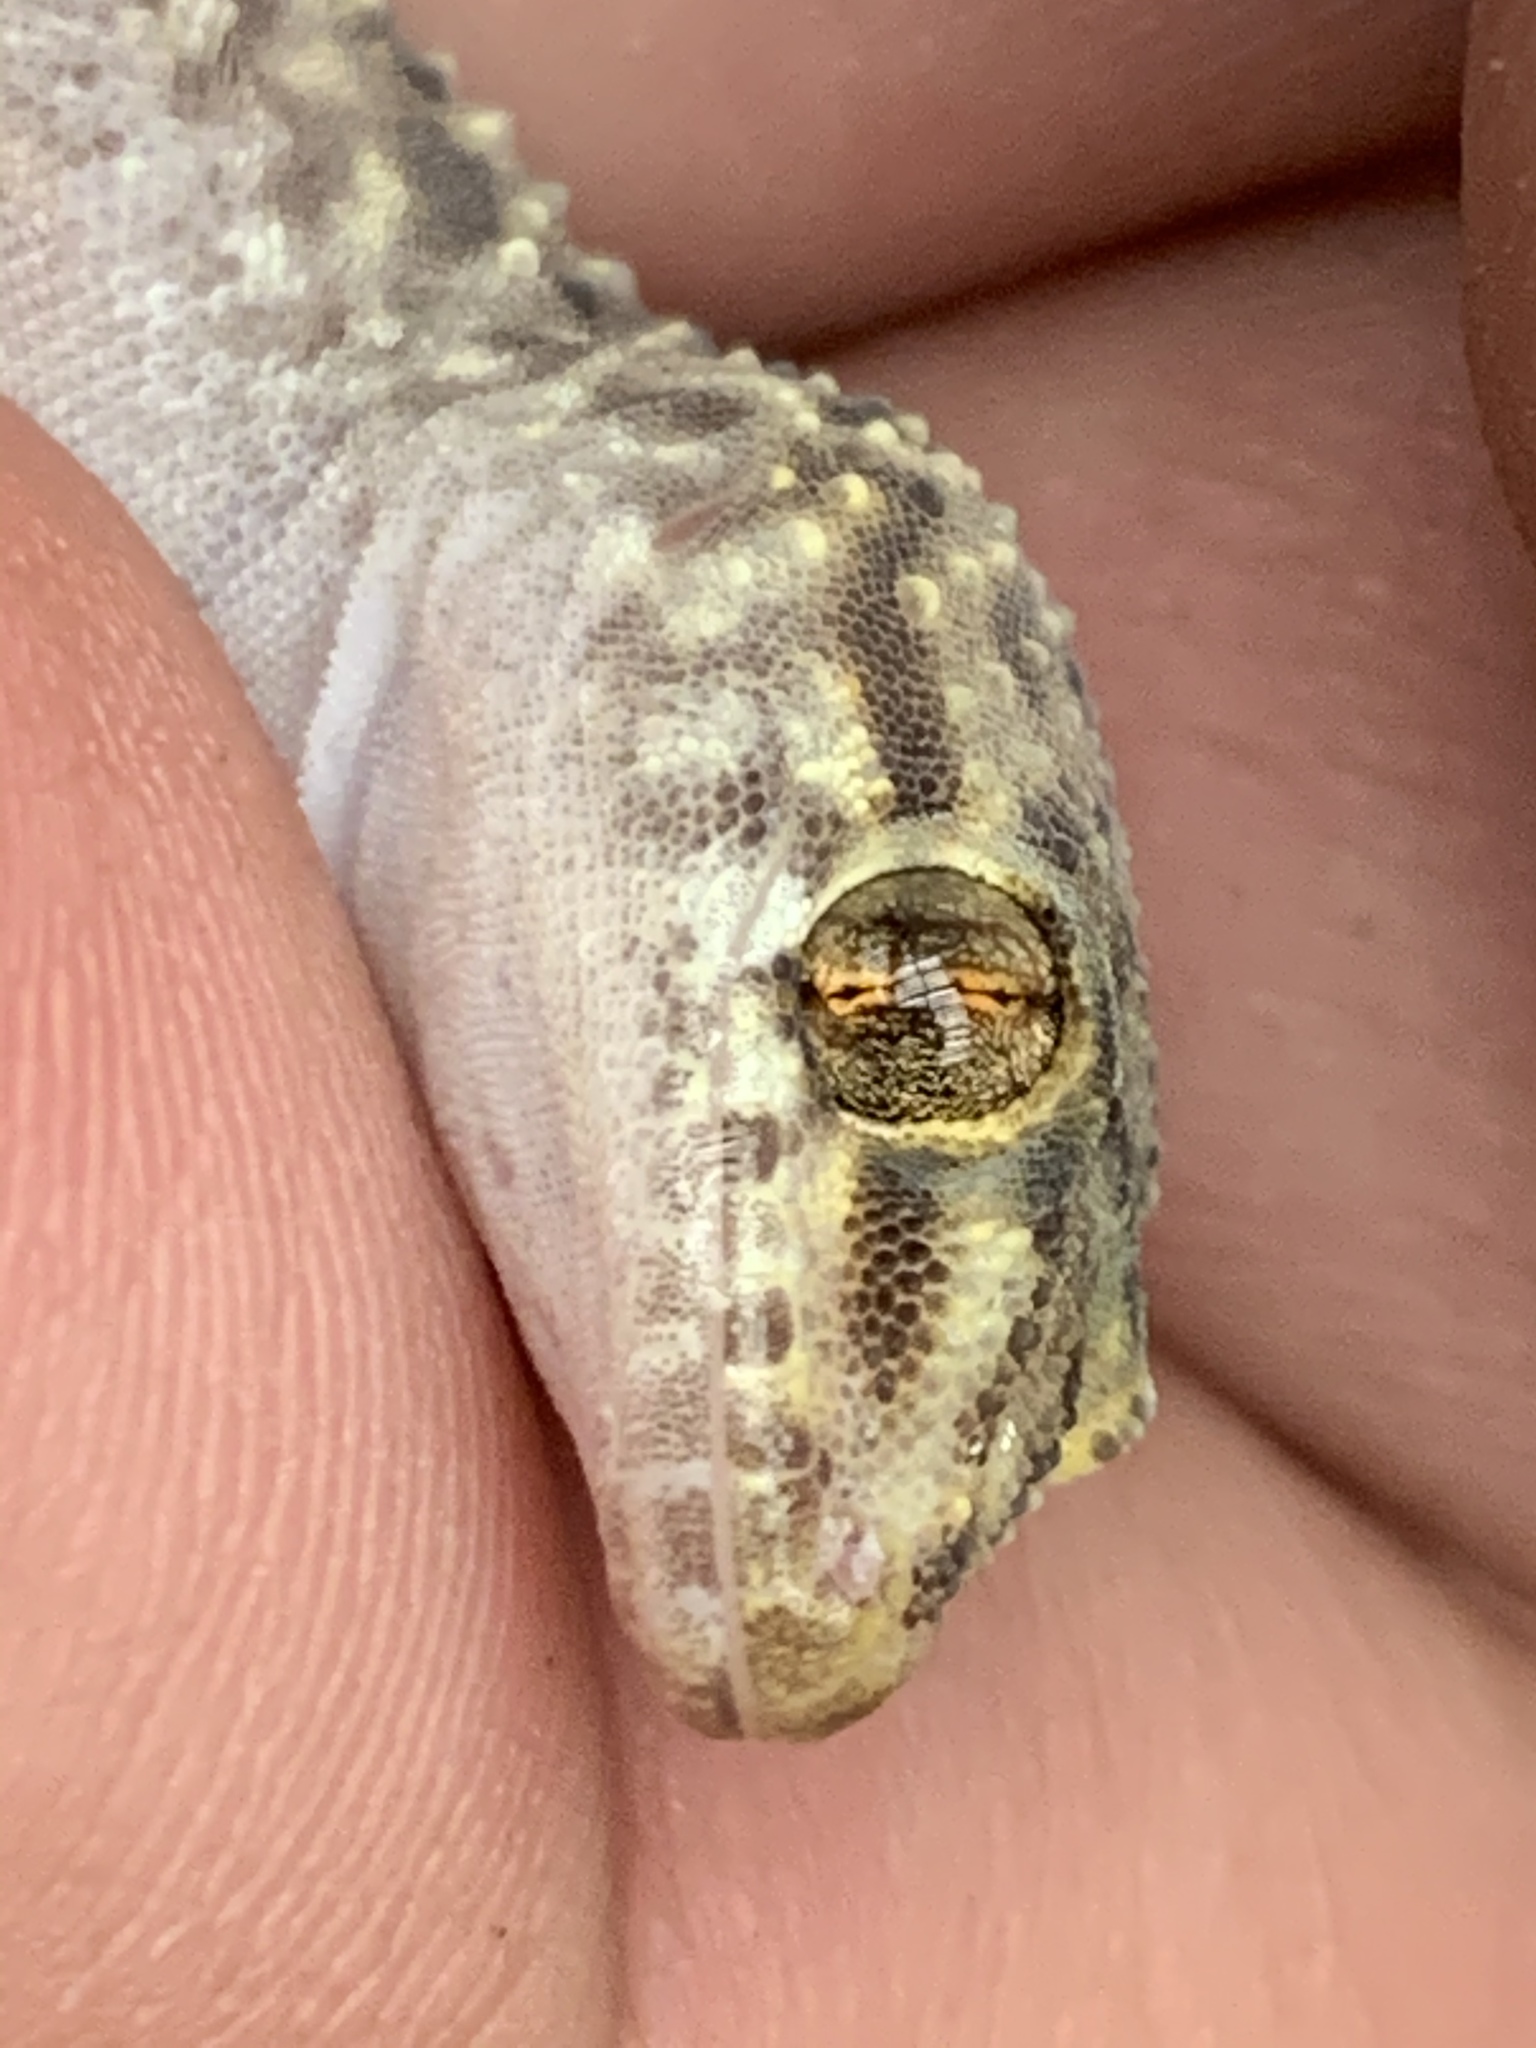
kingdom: Animalia
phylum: Chordata
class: Squamata
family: Gekkonidae
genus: Hemidactylus
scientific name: Hemidactylus turcicus
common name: Turkish gecko
